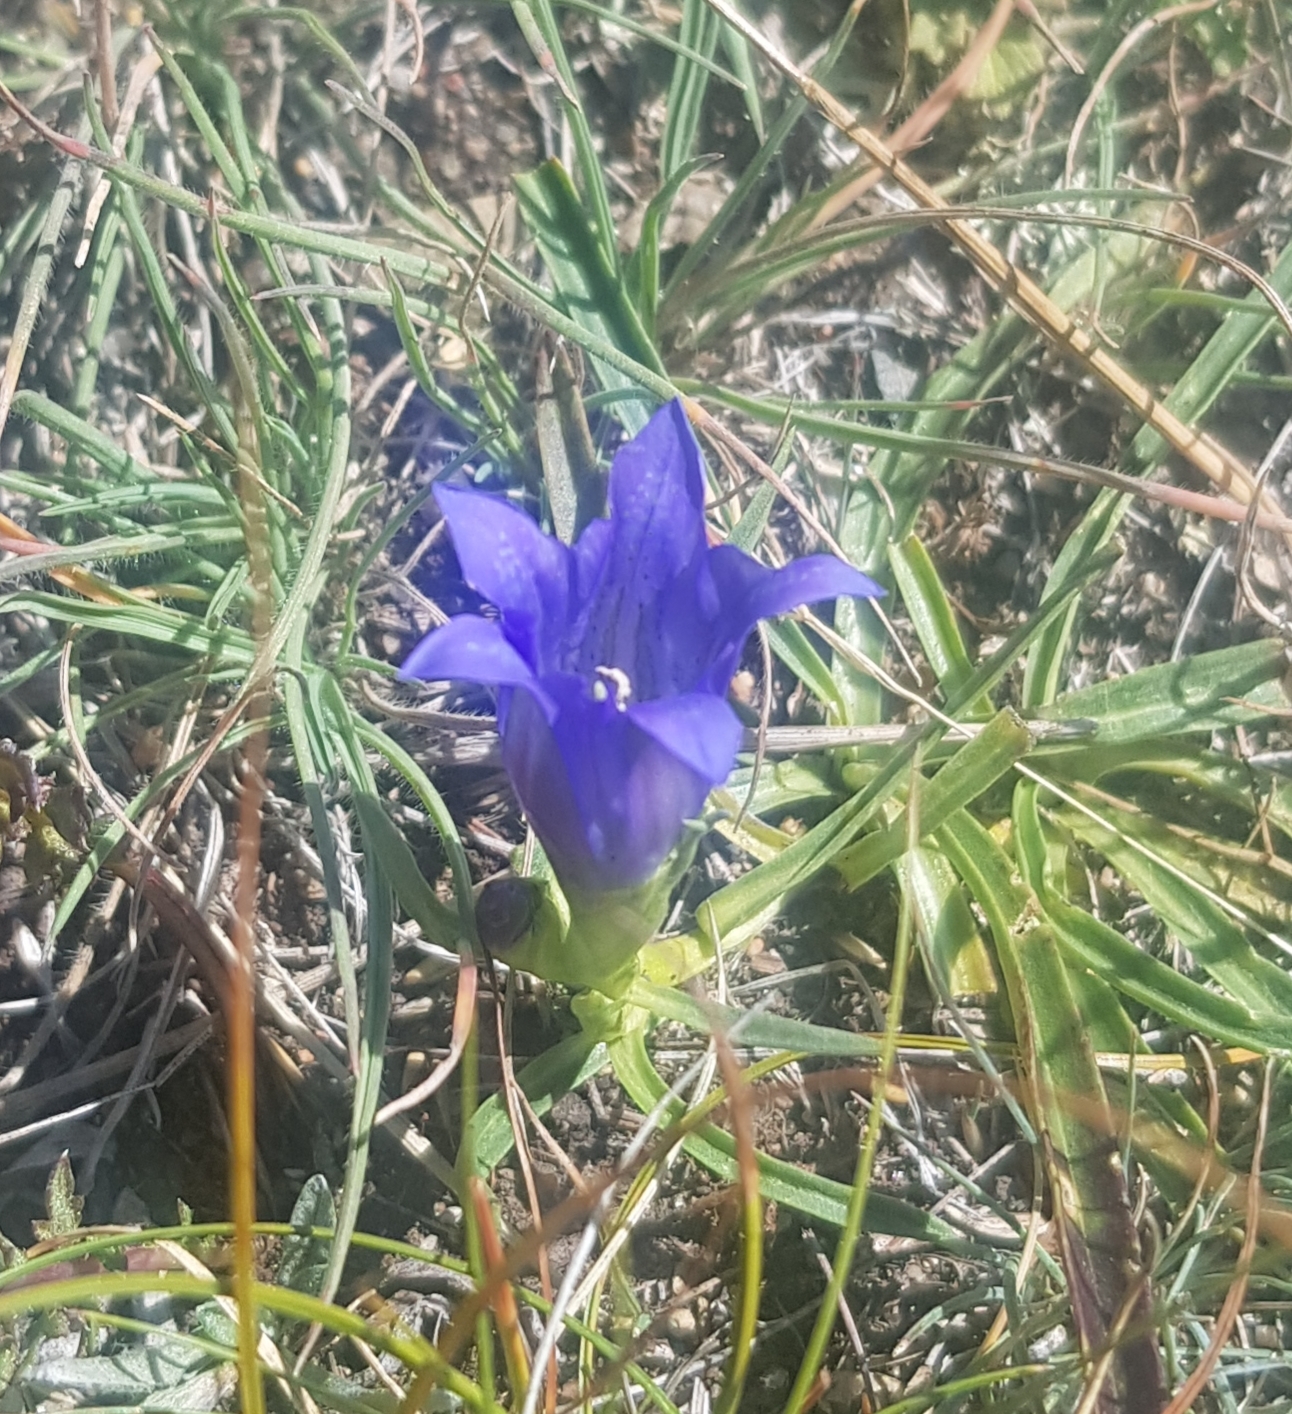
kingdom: Plantae
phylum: Tracheophyta
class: Magnoliopsida
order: Gentianales
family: Gentianaceae
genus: Gentiana
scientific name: Gentiana decumbens
